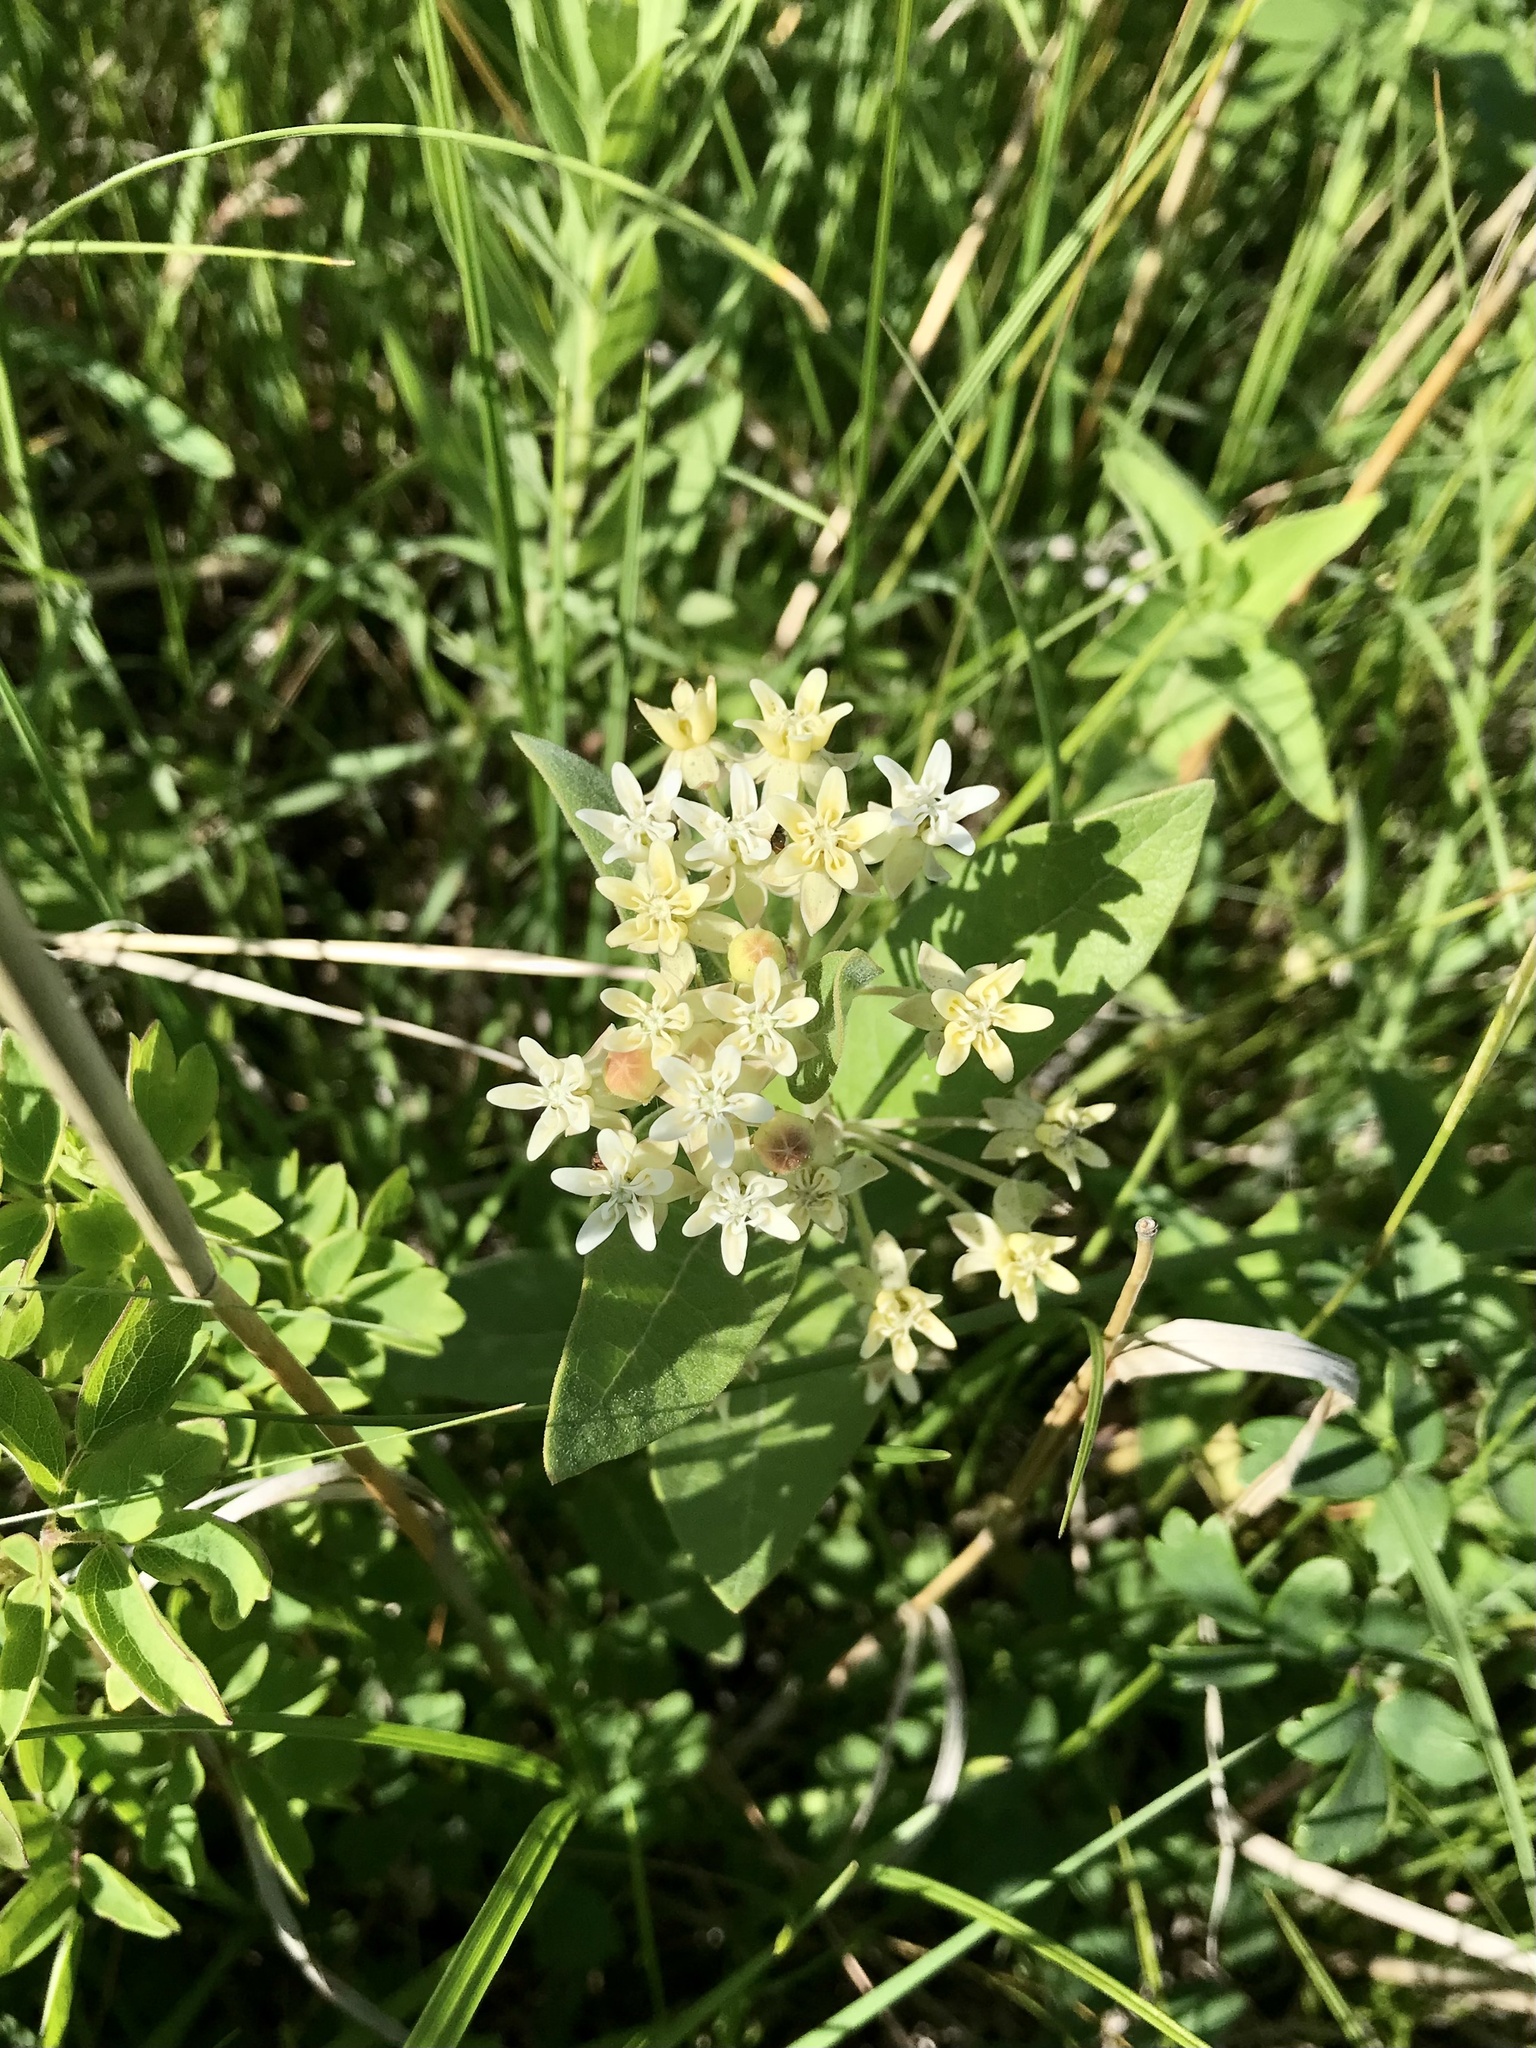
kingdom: Plantae
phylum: Tracheophyta
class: Magnoliopsida
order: Gentianales
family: Apocynaceae
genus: Asclepias
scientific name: Asclepias ovalifolia
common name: Dwarf milkweed
